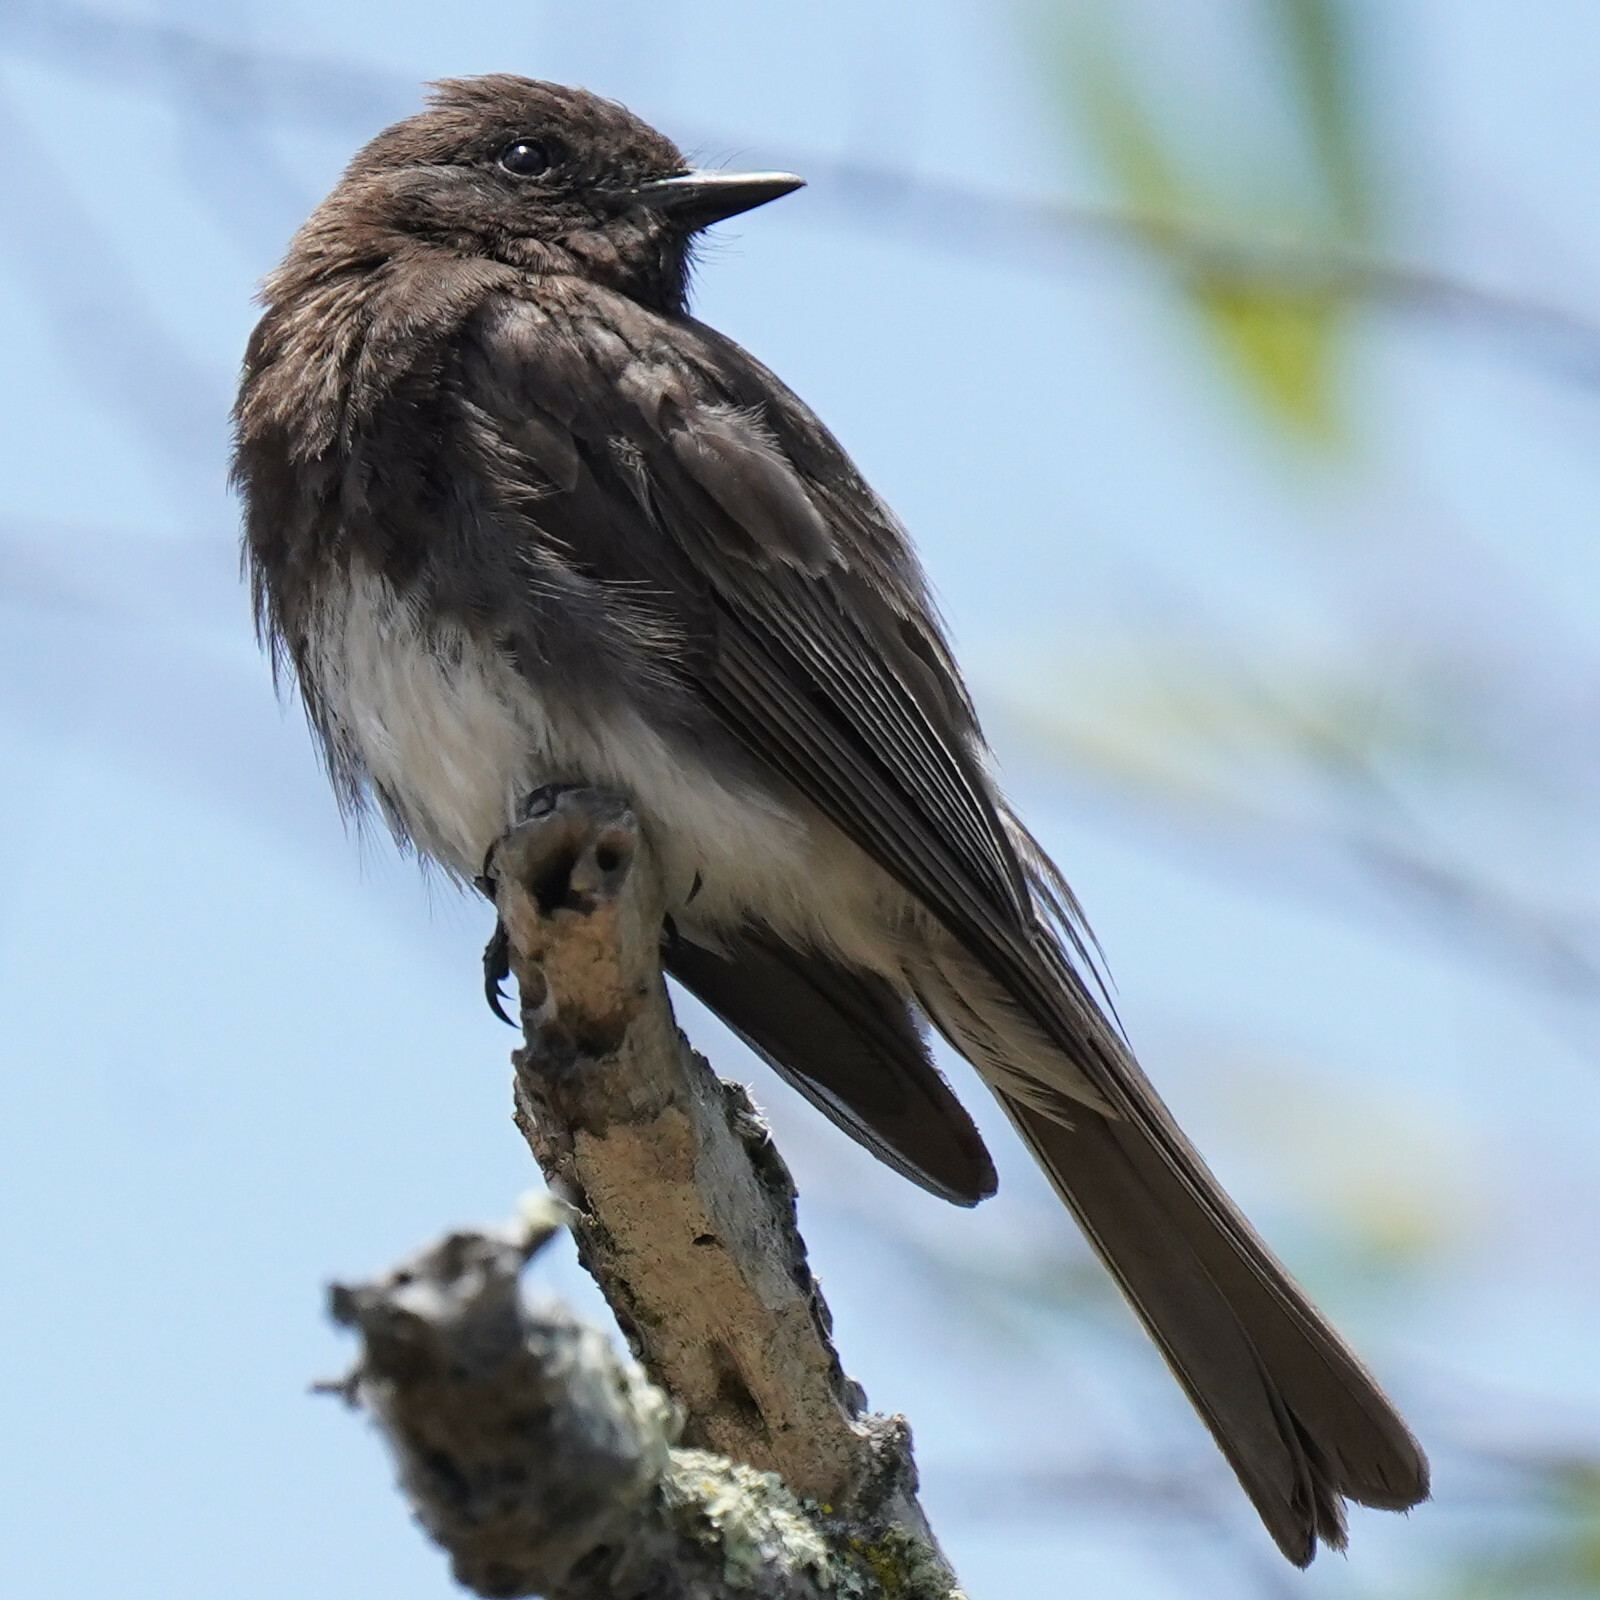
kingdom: Animalia
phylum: Chordata
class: Aves
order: Passeriformes
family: Tyrannidae
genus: Sayornis
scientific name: Sayornis nigricans
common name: Black phoebe
